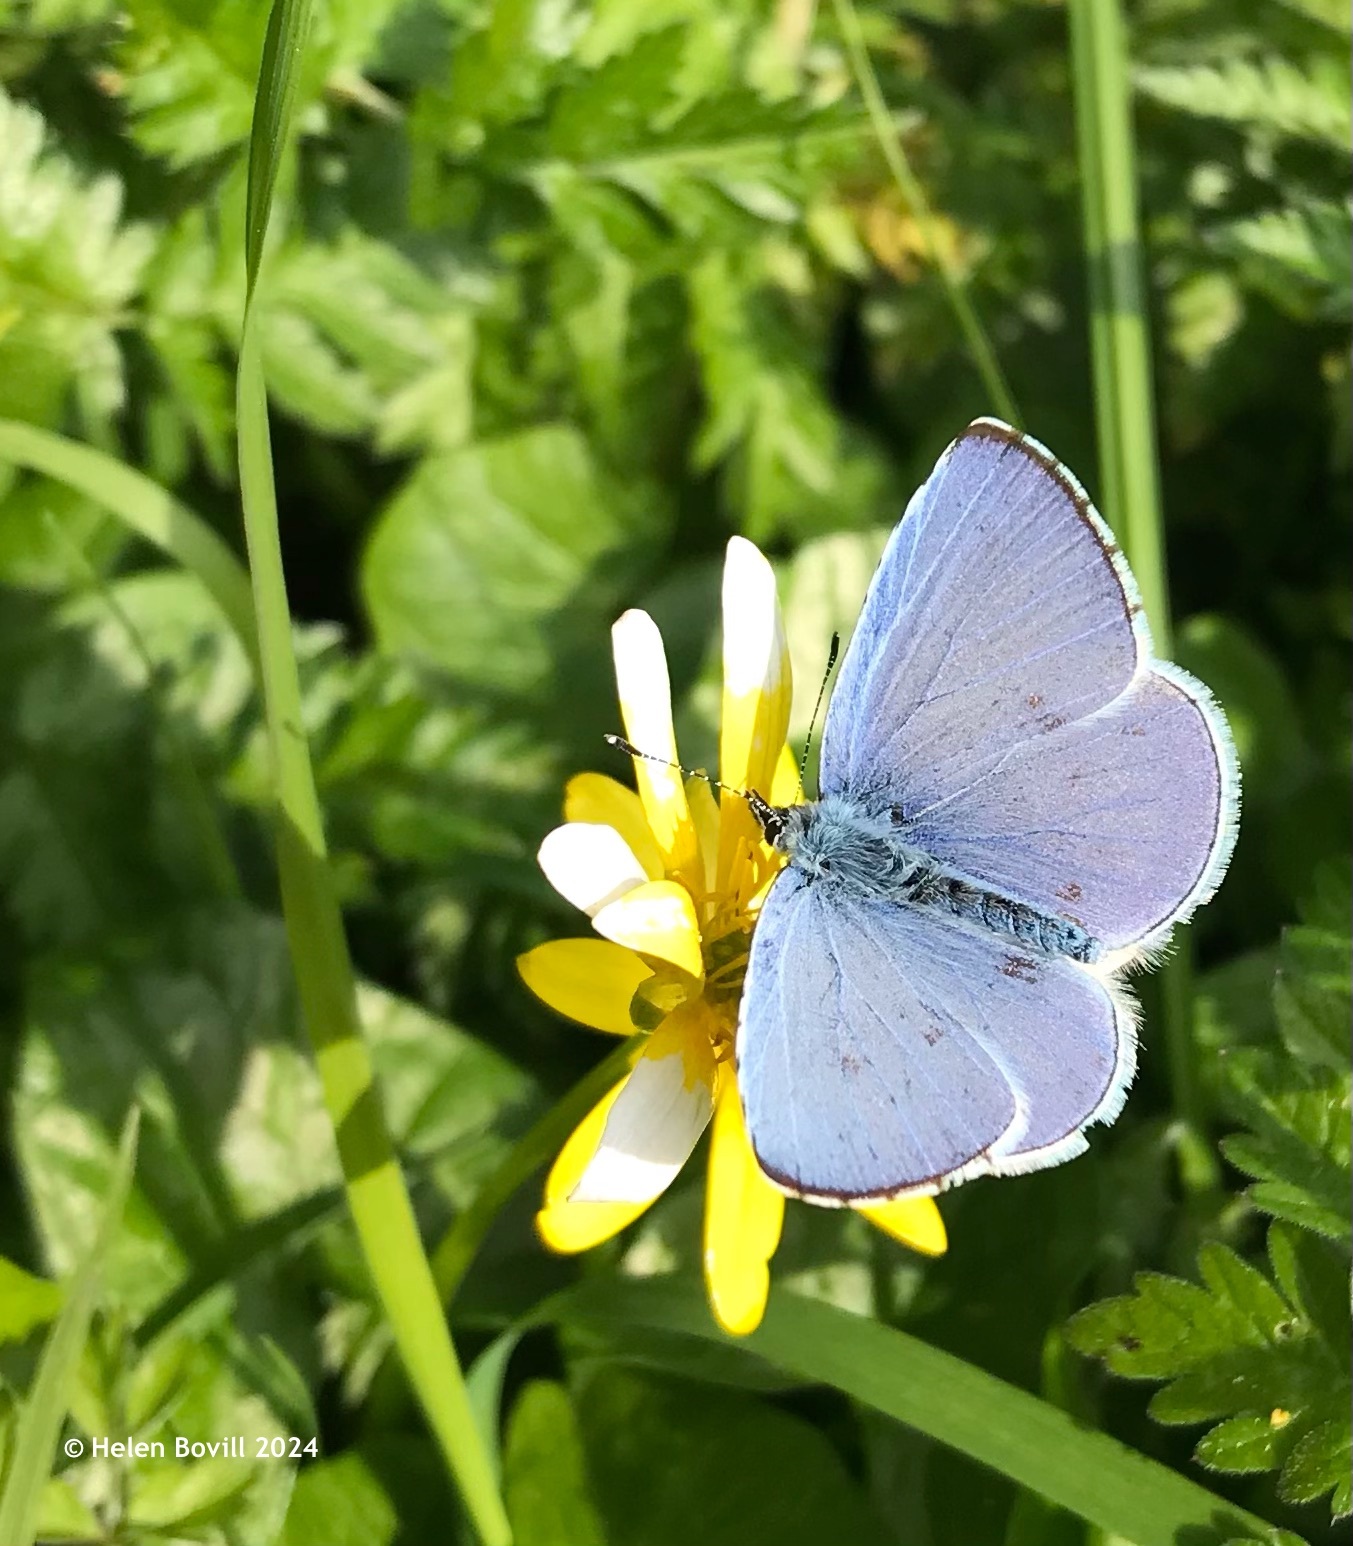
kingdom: Animalia
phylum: Arthropoda
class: Insecta
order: Lepidoptera
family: Lycaenidae
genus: Celastrina
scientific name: Celastrina argiolus
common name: Holly blue
